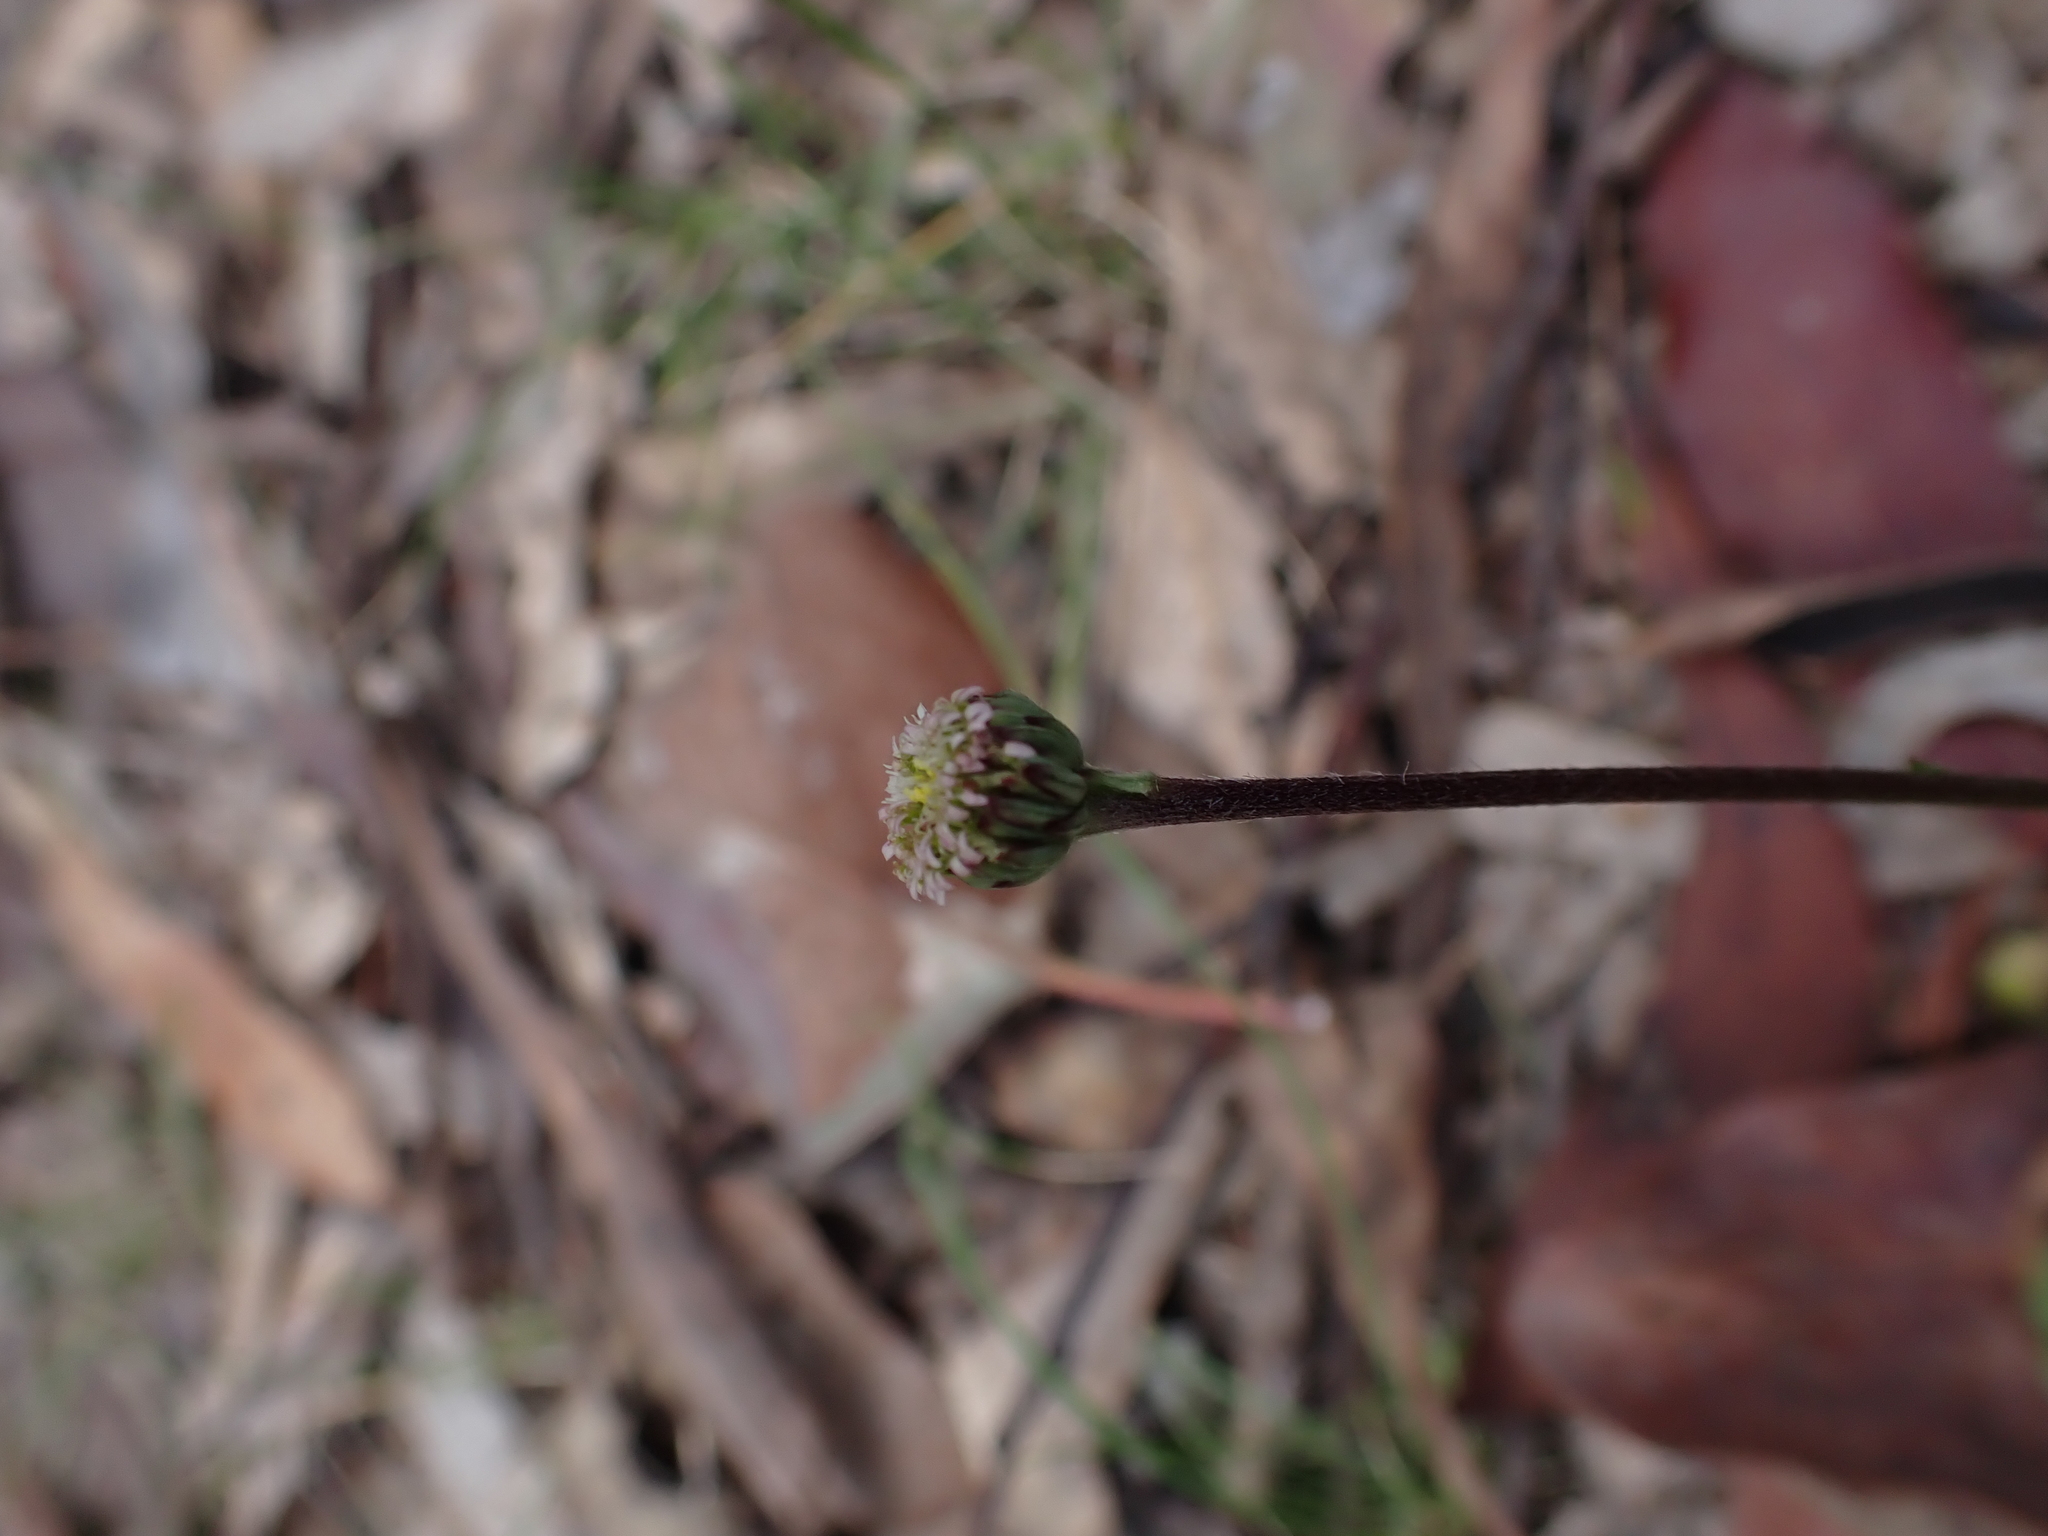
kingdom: Plantae
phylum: Tracheophyta
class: Magnoliopsida
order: Asterales
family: Asteraceae
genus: Lagenophora
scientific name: Lagenophora huegelii
